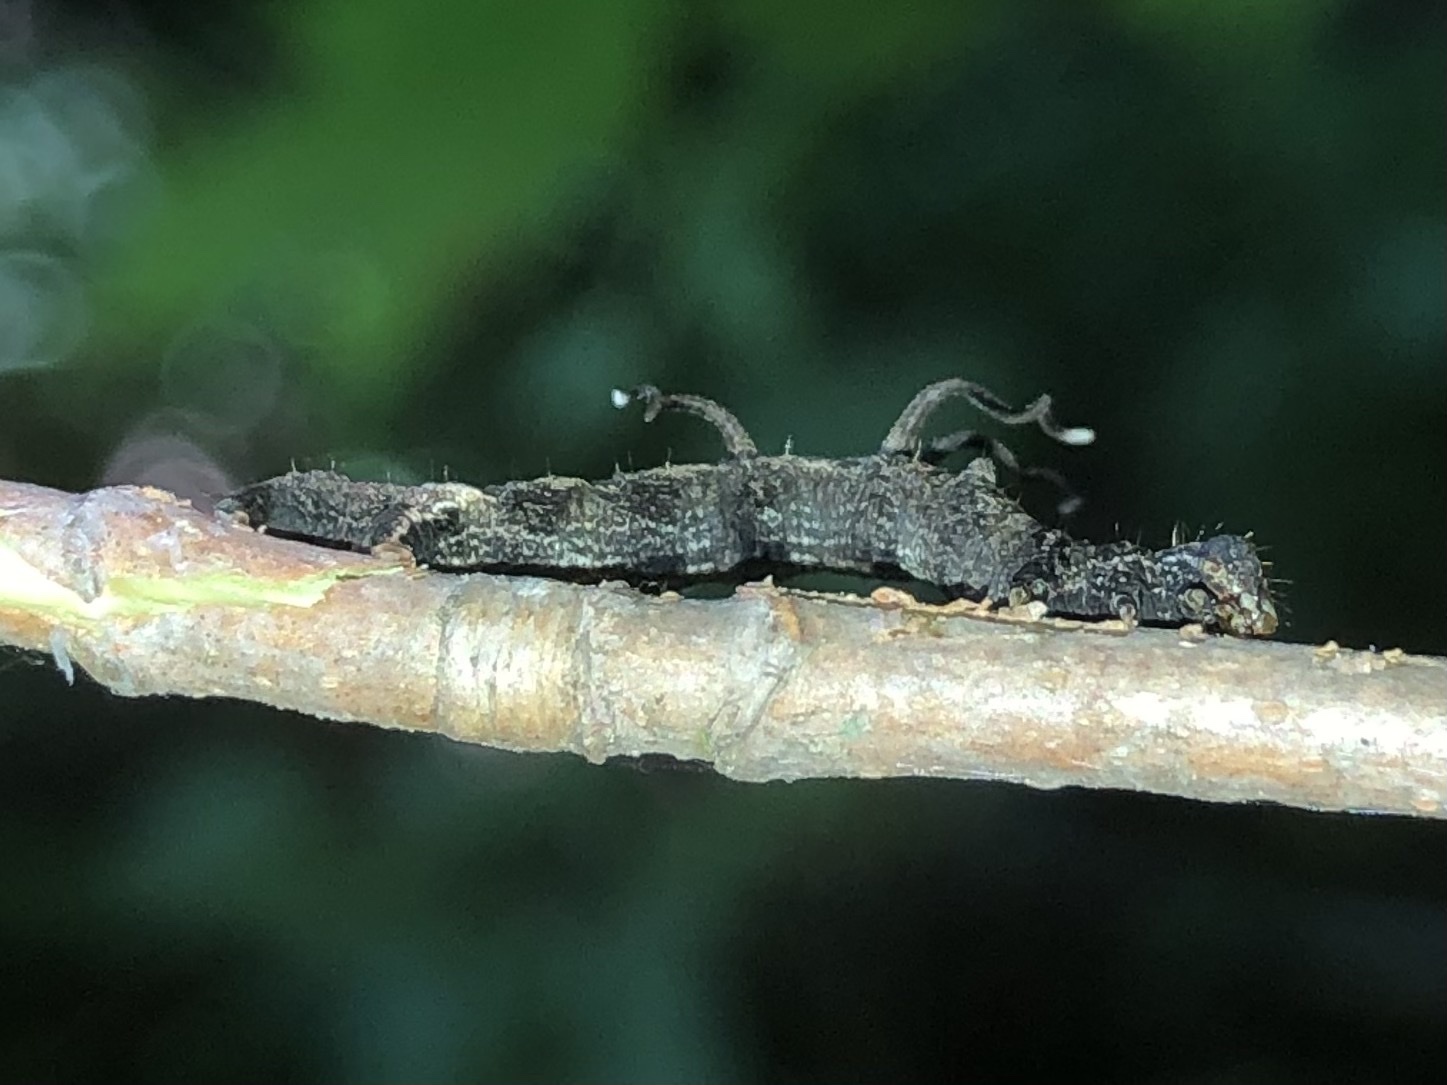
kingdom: Animalia
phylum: Arthropoda
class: Insecta
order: Lepidoptera
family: Geometridae
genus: Nematocampa
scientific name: Nematocampa resistaria
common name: Horned spanworm moth
